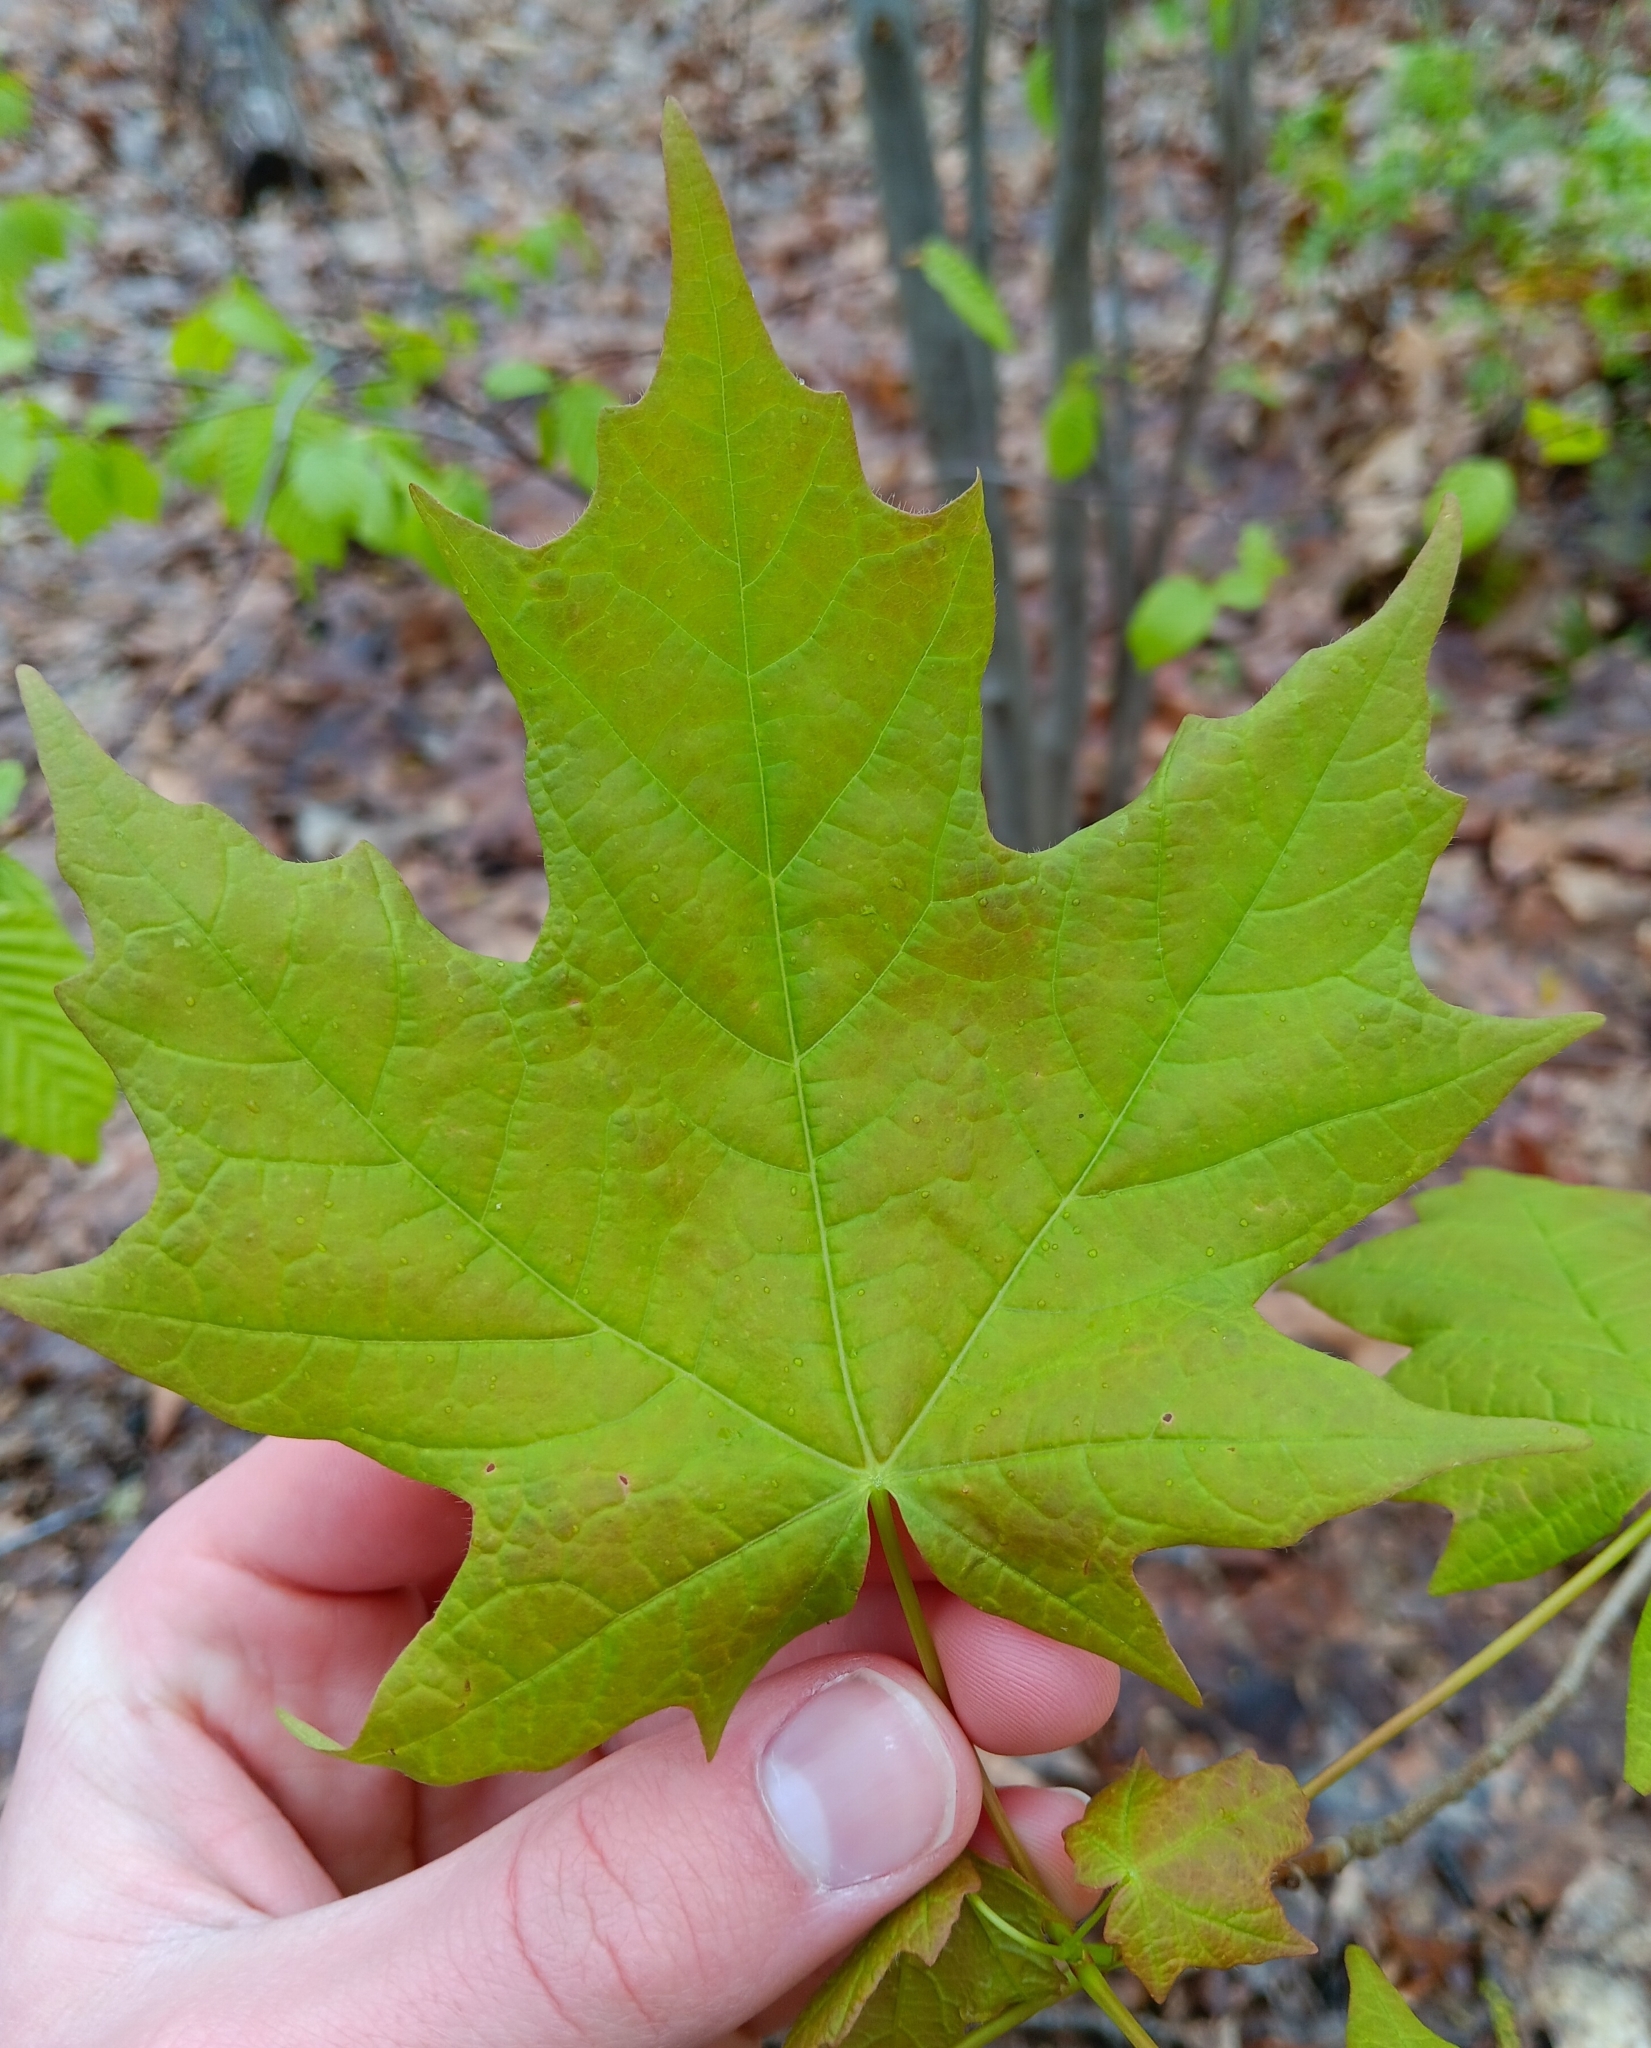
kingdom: Plantae
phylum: Tracheophyta
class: Magnoliopsida
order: Sapindales
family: Sapindaceae
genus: Acer
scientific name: Acer saccharum
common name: Sugar maple
